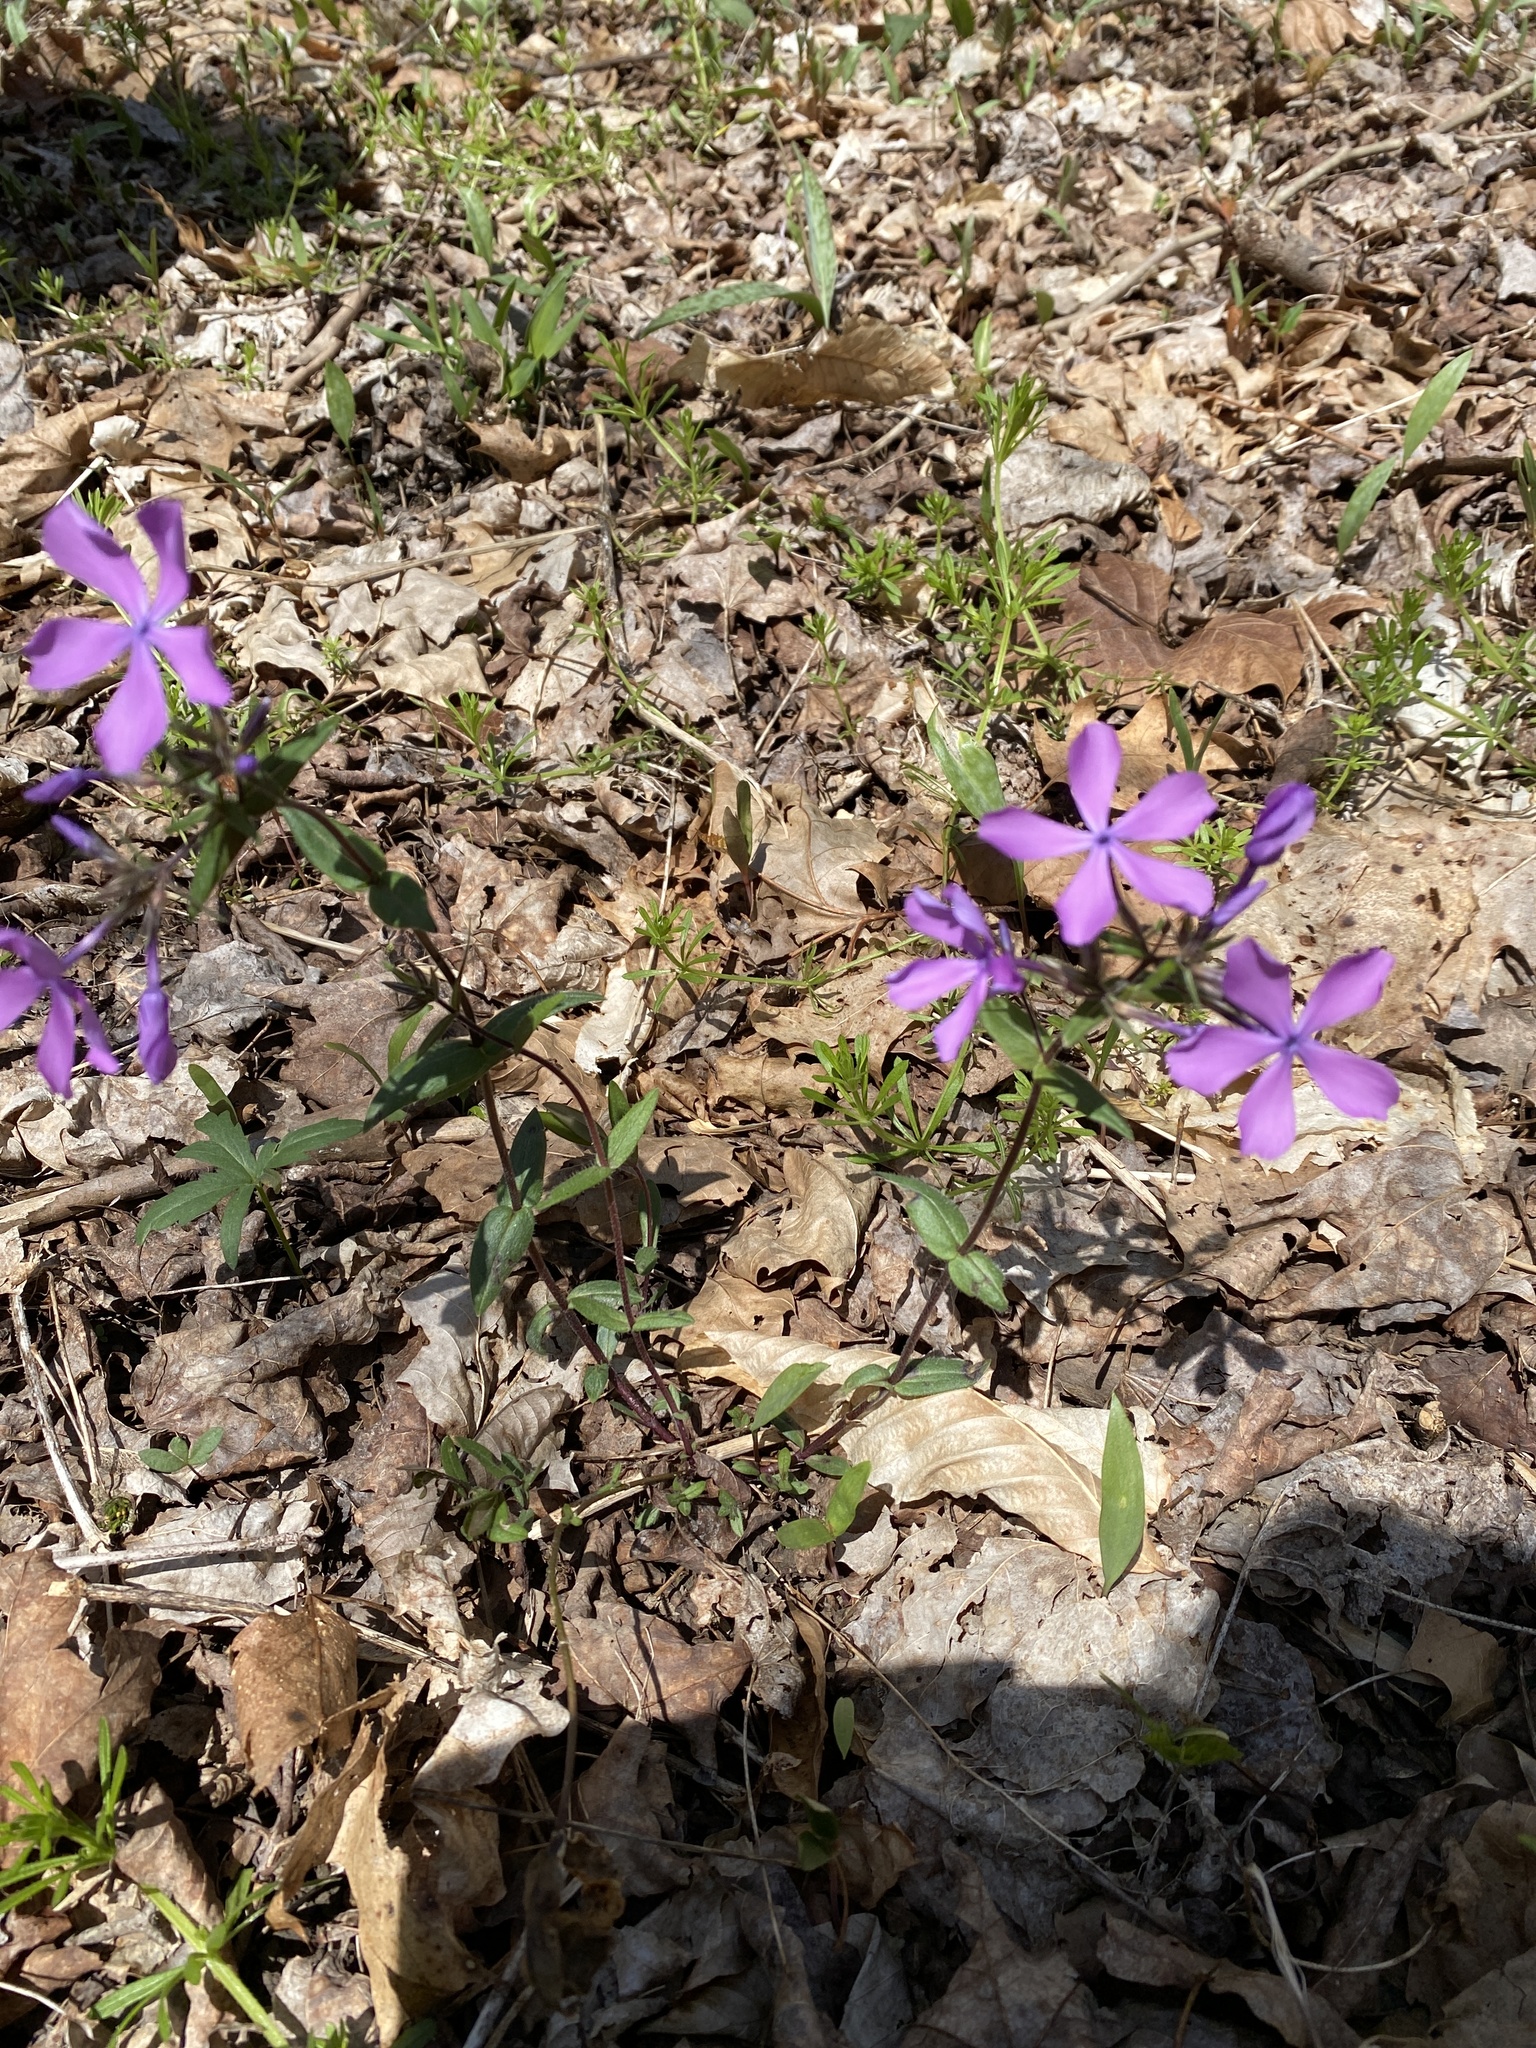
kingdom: Plantae
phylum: Tracheophyta
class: Magnoliopsida
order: Ericales
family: Polemoniaceae
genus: Phlox
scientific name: Phlox divaricata
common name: Blue phlox
